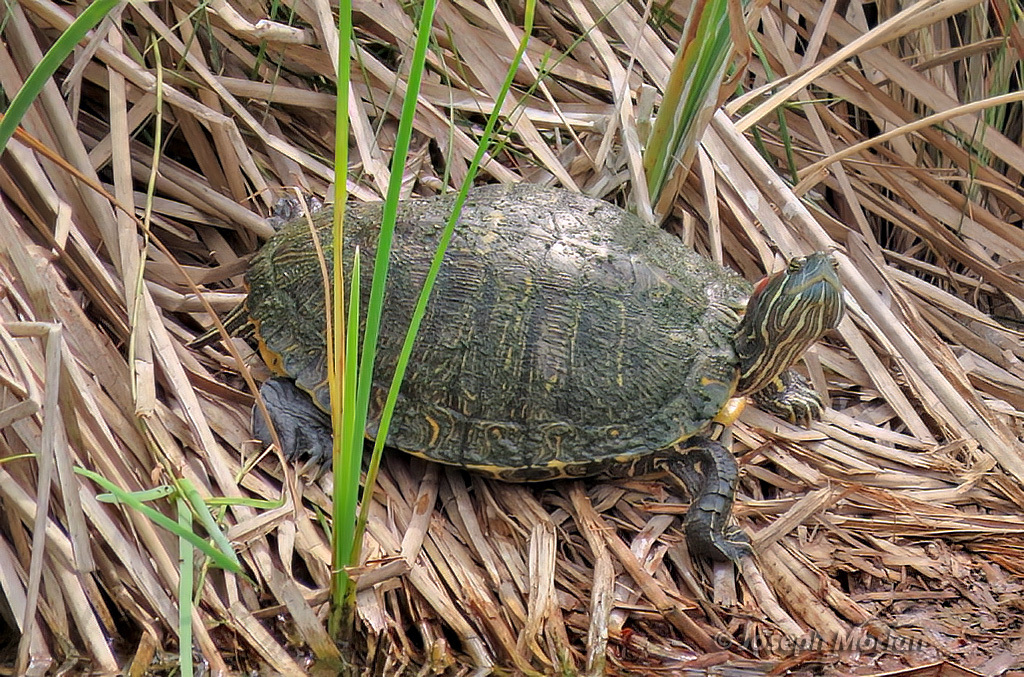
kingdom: Animalia
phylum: Chordata
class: Testudines
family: Emydidae
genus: Trachemys
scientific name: Trachemys scripta
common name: Slider
